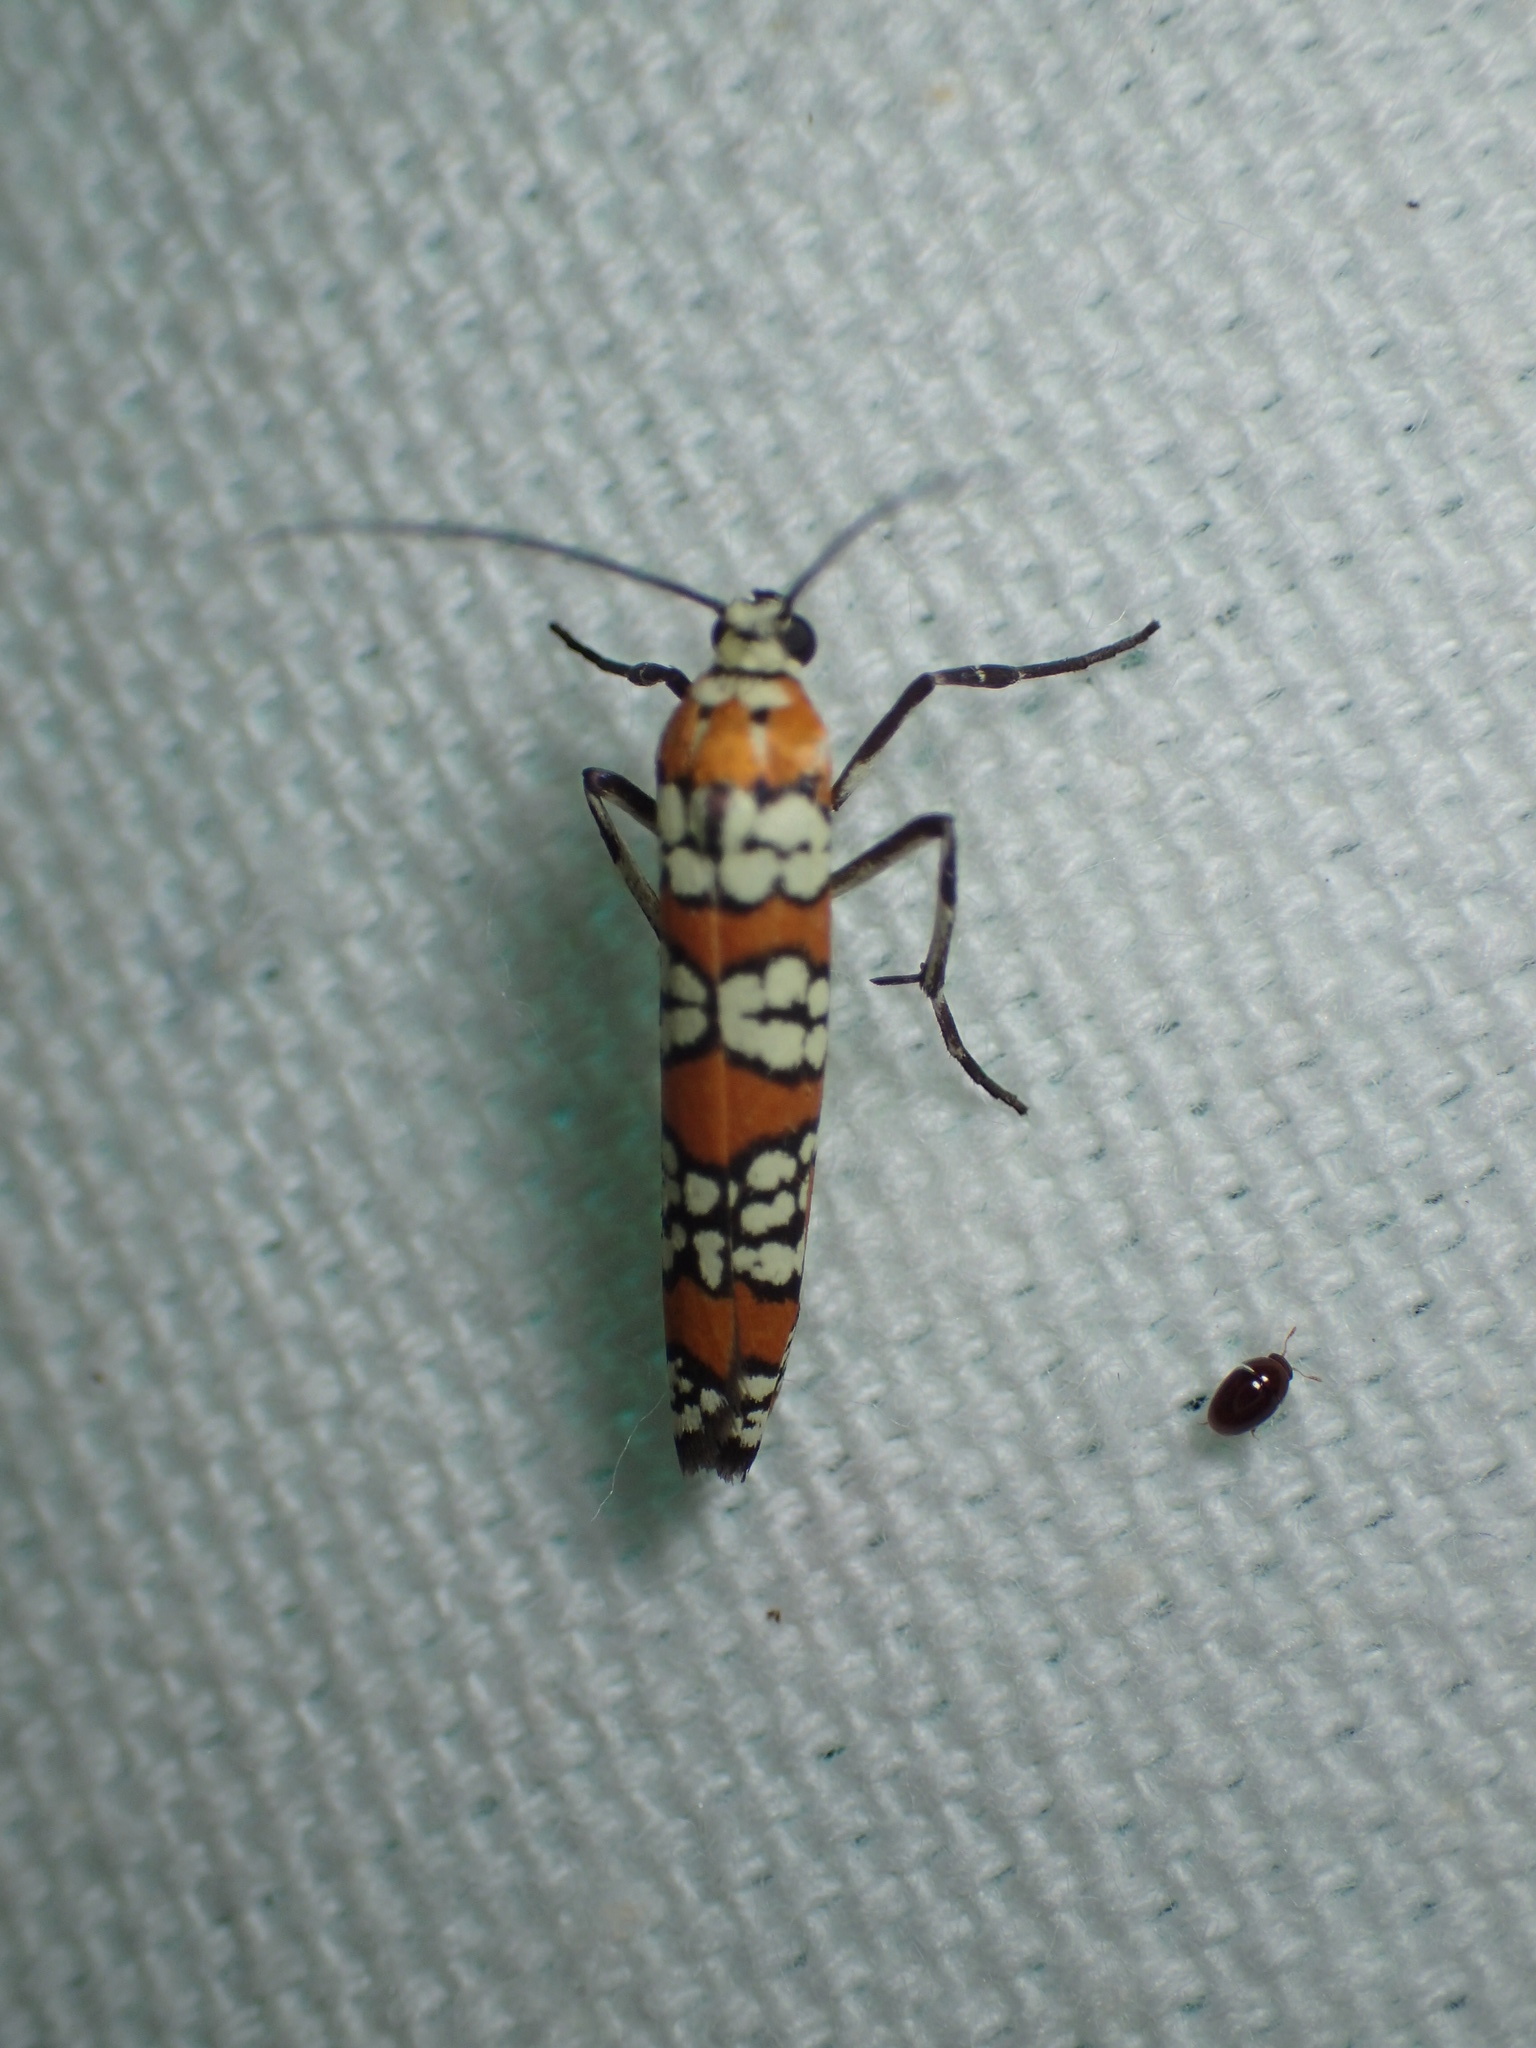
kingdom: Animalia
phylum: Arthropoda
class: Insecta
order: Lepidoptera
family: Attevidae
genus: Atteva
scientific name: Atteva punctella
